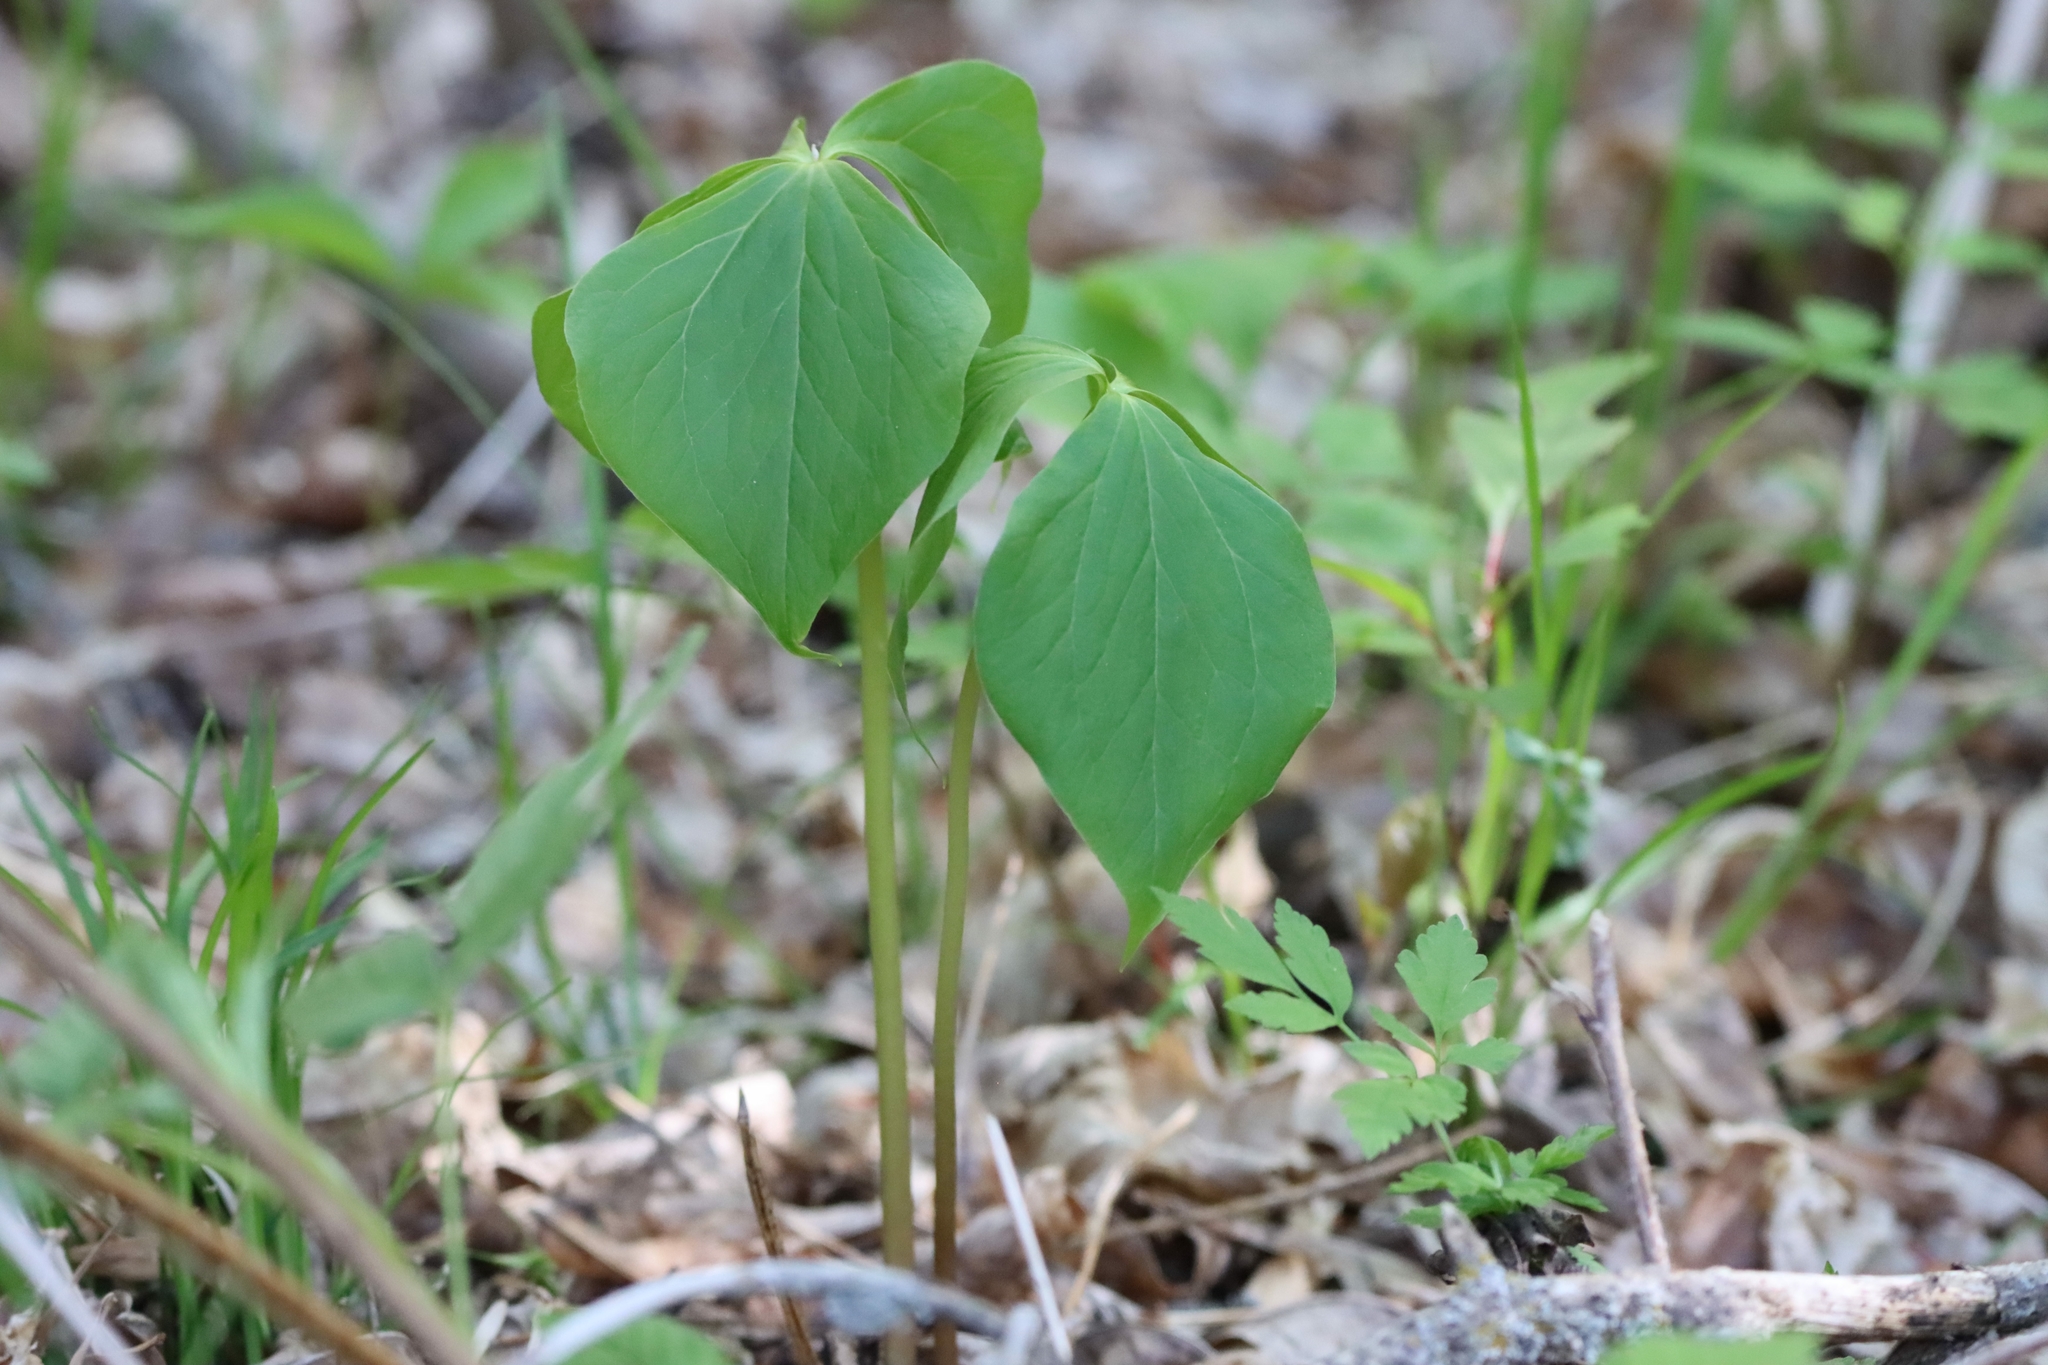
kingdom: Plantae
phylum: Tracheophyta
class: Liliopsida
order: Liliales
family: Melanthiaceae
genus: Trillium
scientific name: Trillium cernuum
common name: Nodding trillium
